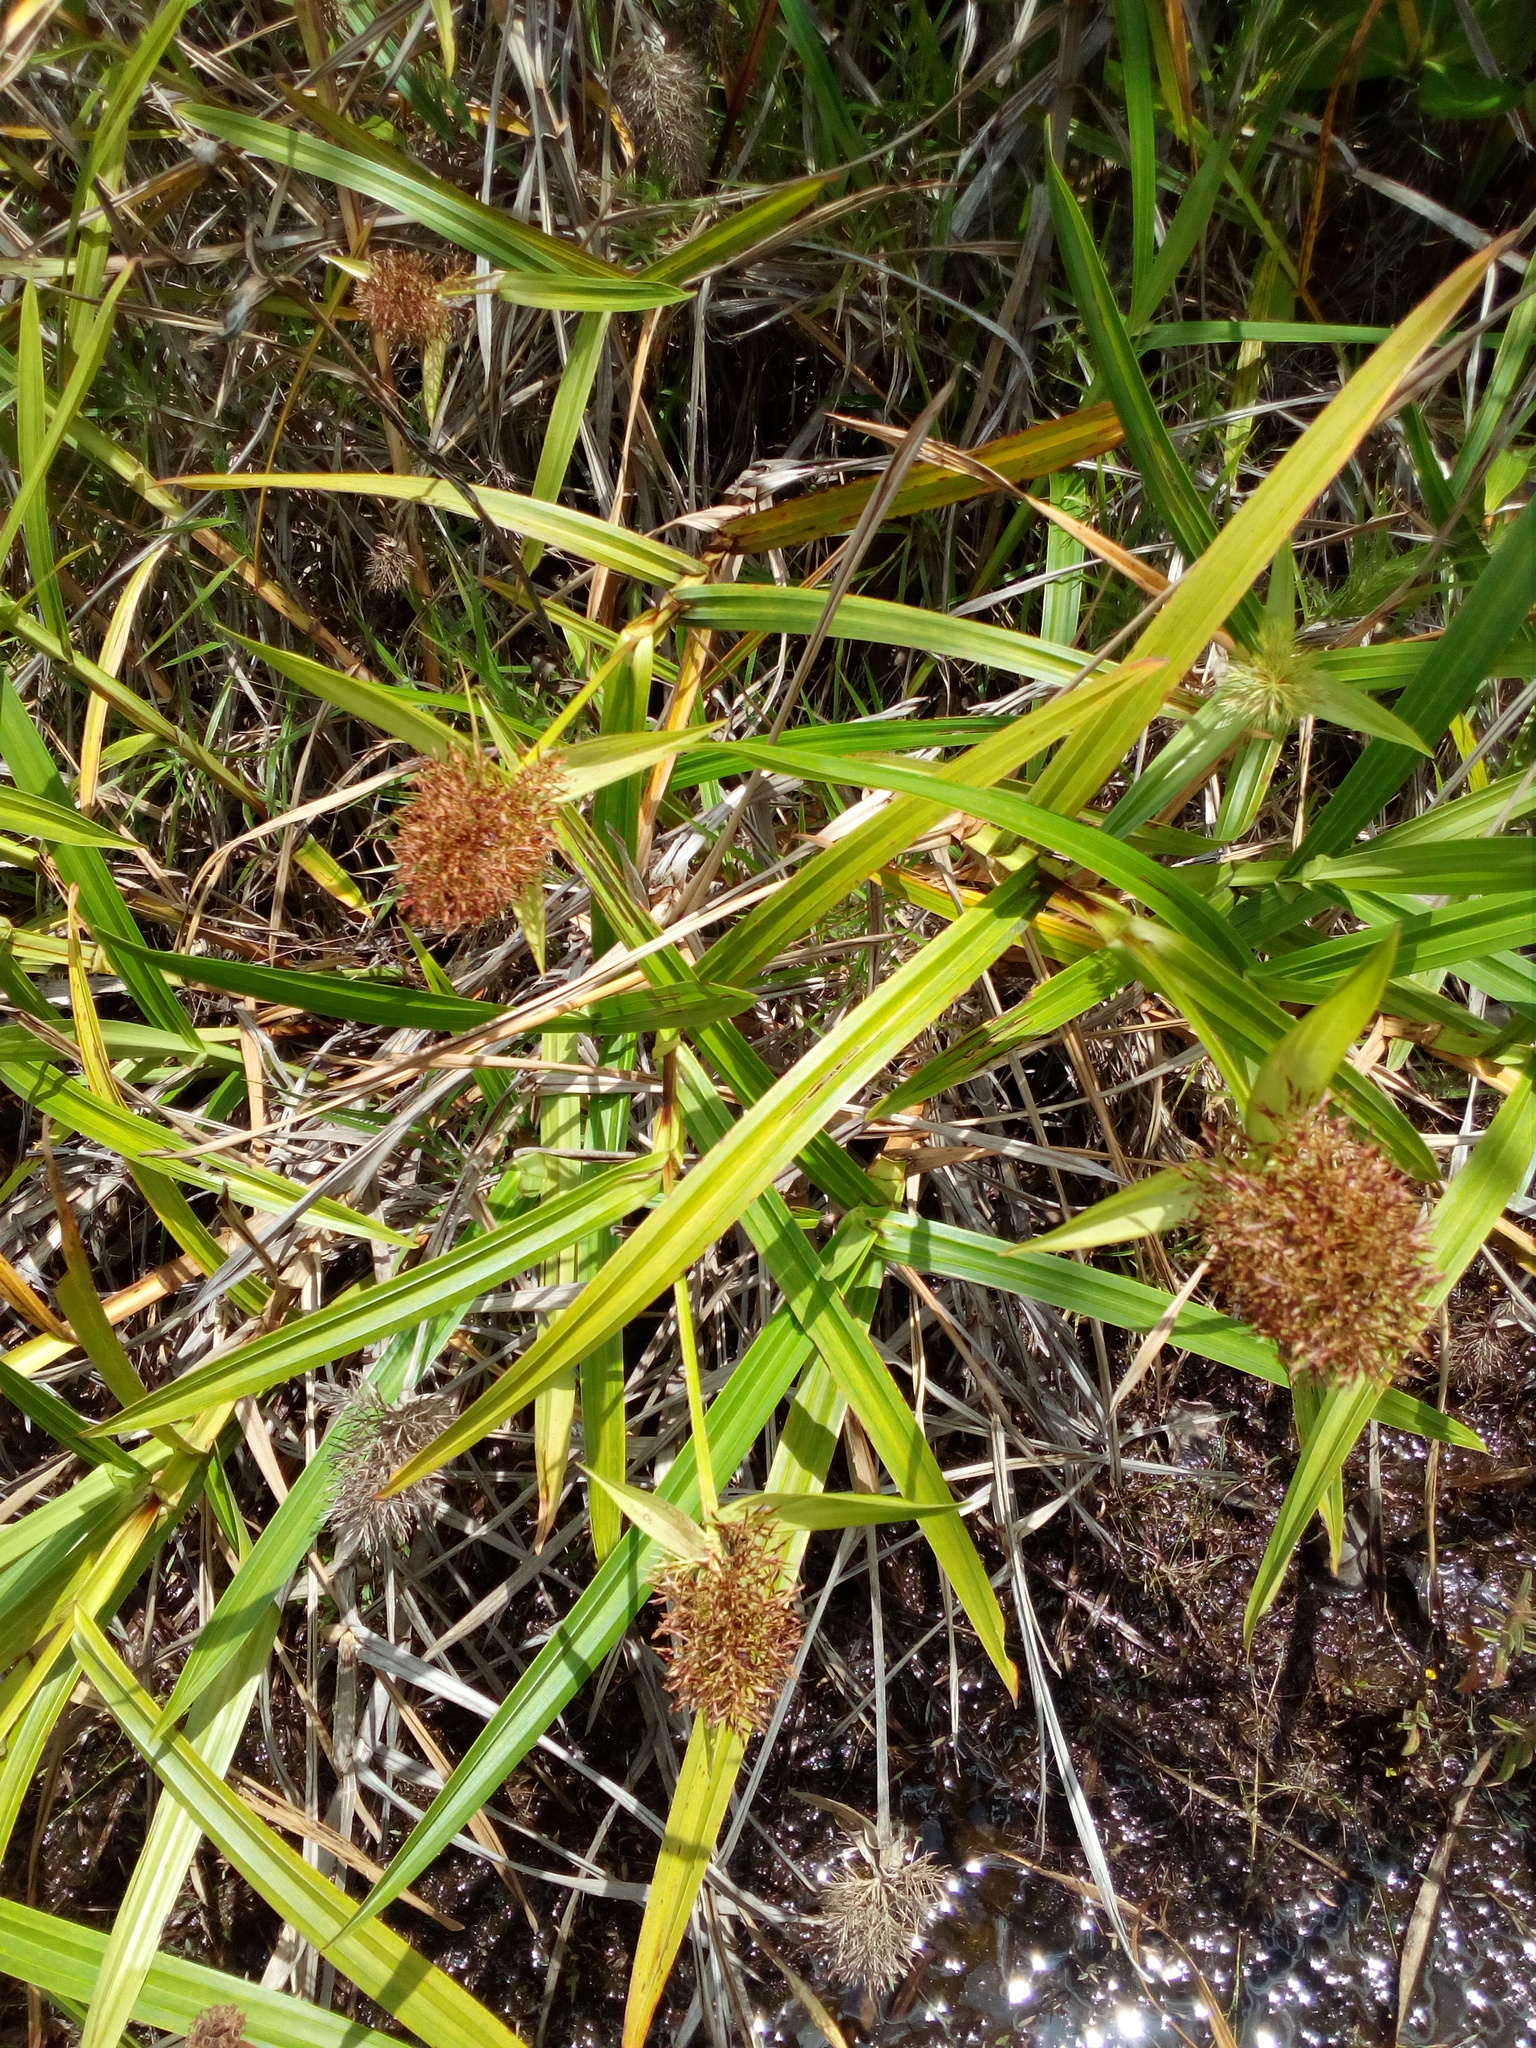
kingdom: Plantae
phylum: Tracheophyta
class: Liliopsida
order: Poales
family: Cyperaceae
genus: Scleria
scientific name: Scleria cyperina
